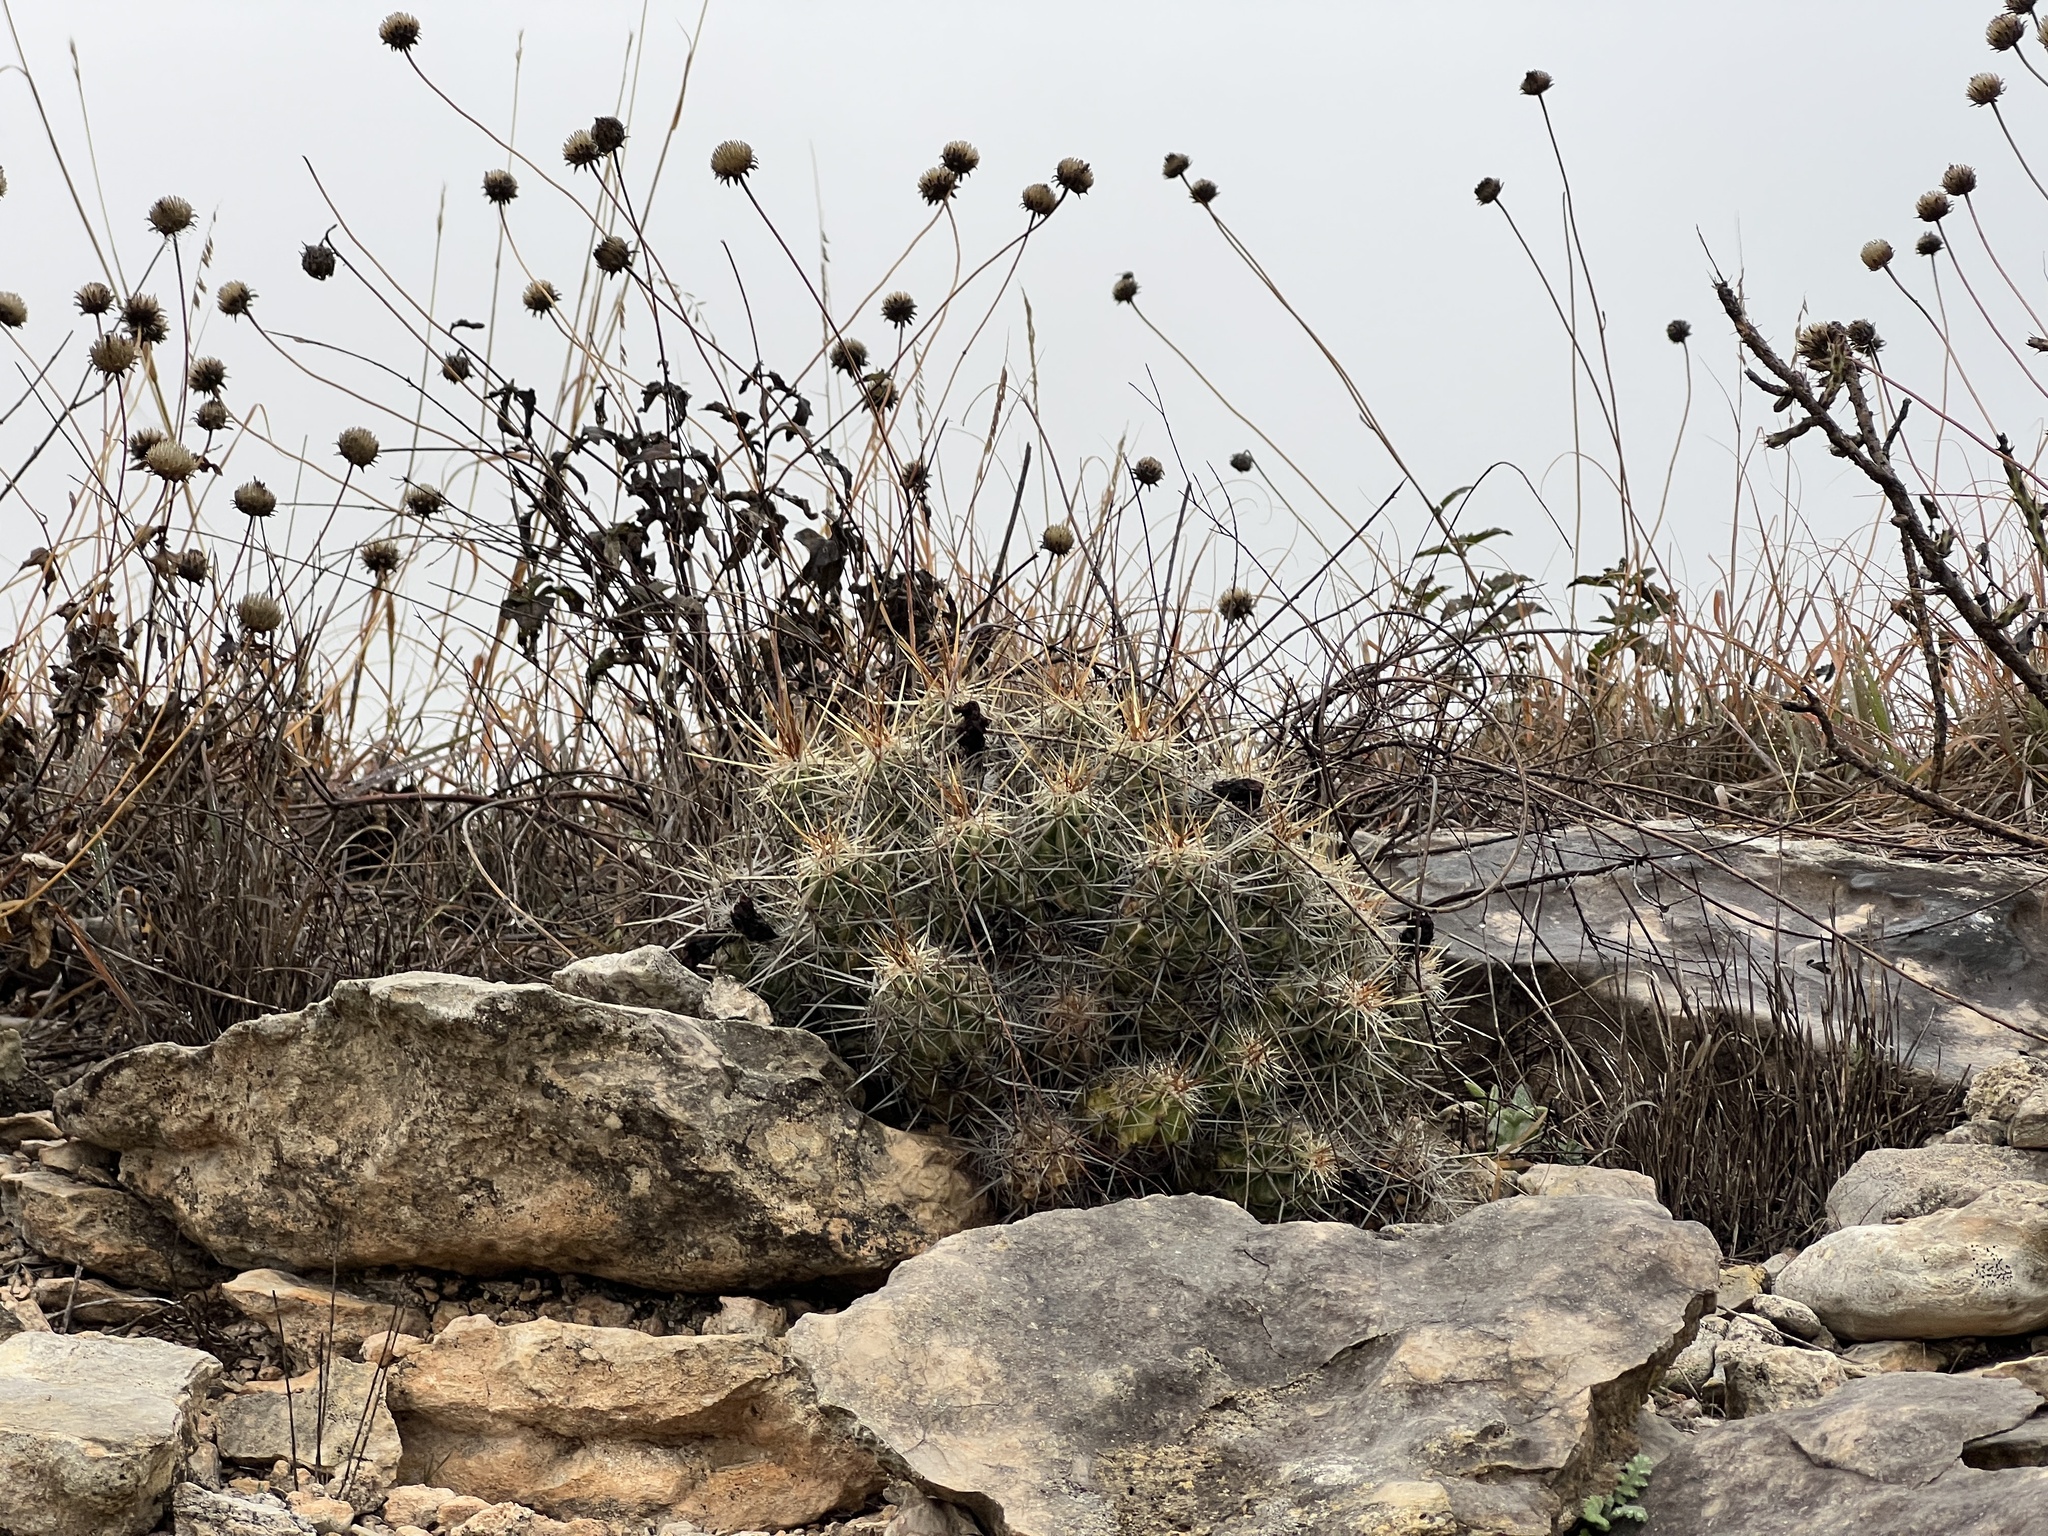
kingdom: Plantae
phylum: Tracheophyta
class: Magnoliopsida
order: Caryophyllales
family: Cactaceae
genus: Echinocereus
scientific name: Echinocereus enneacanthus
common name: Pitaya
